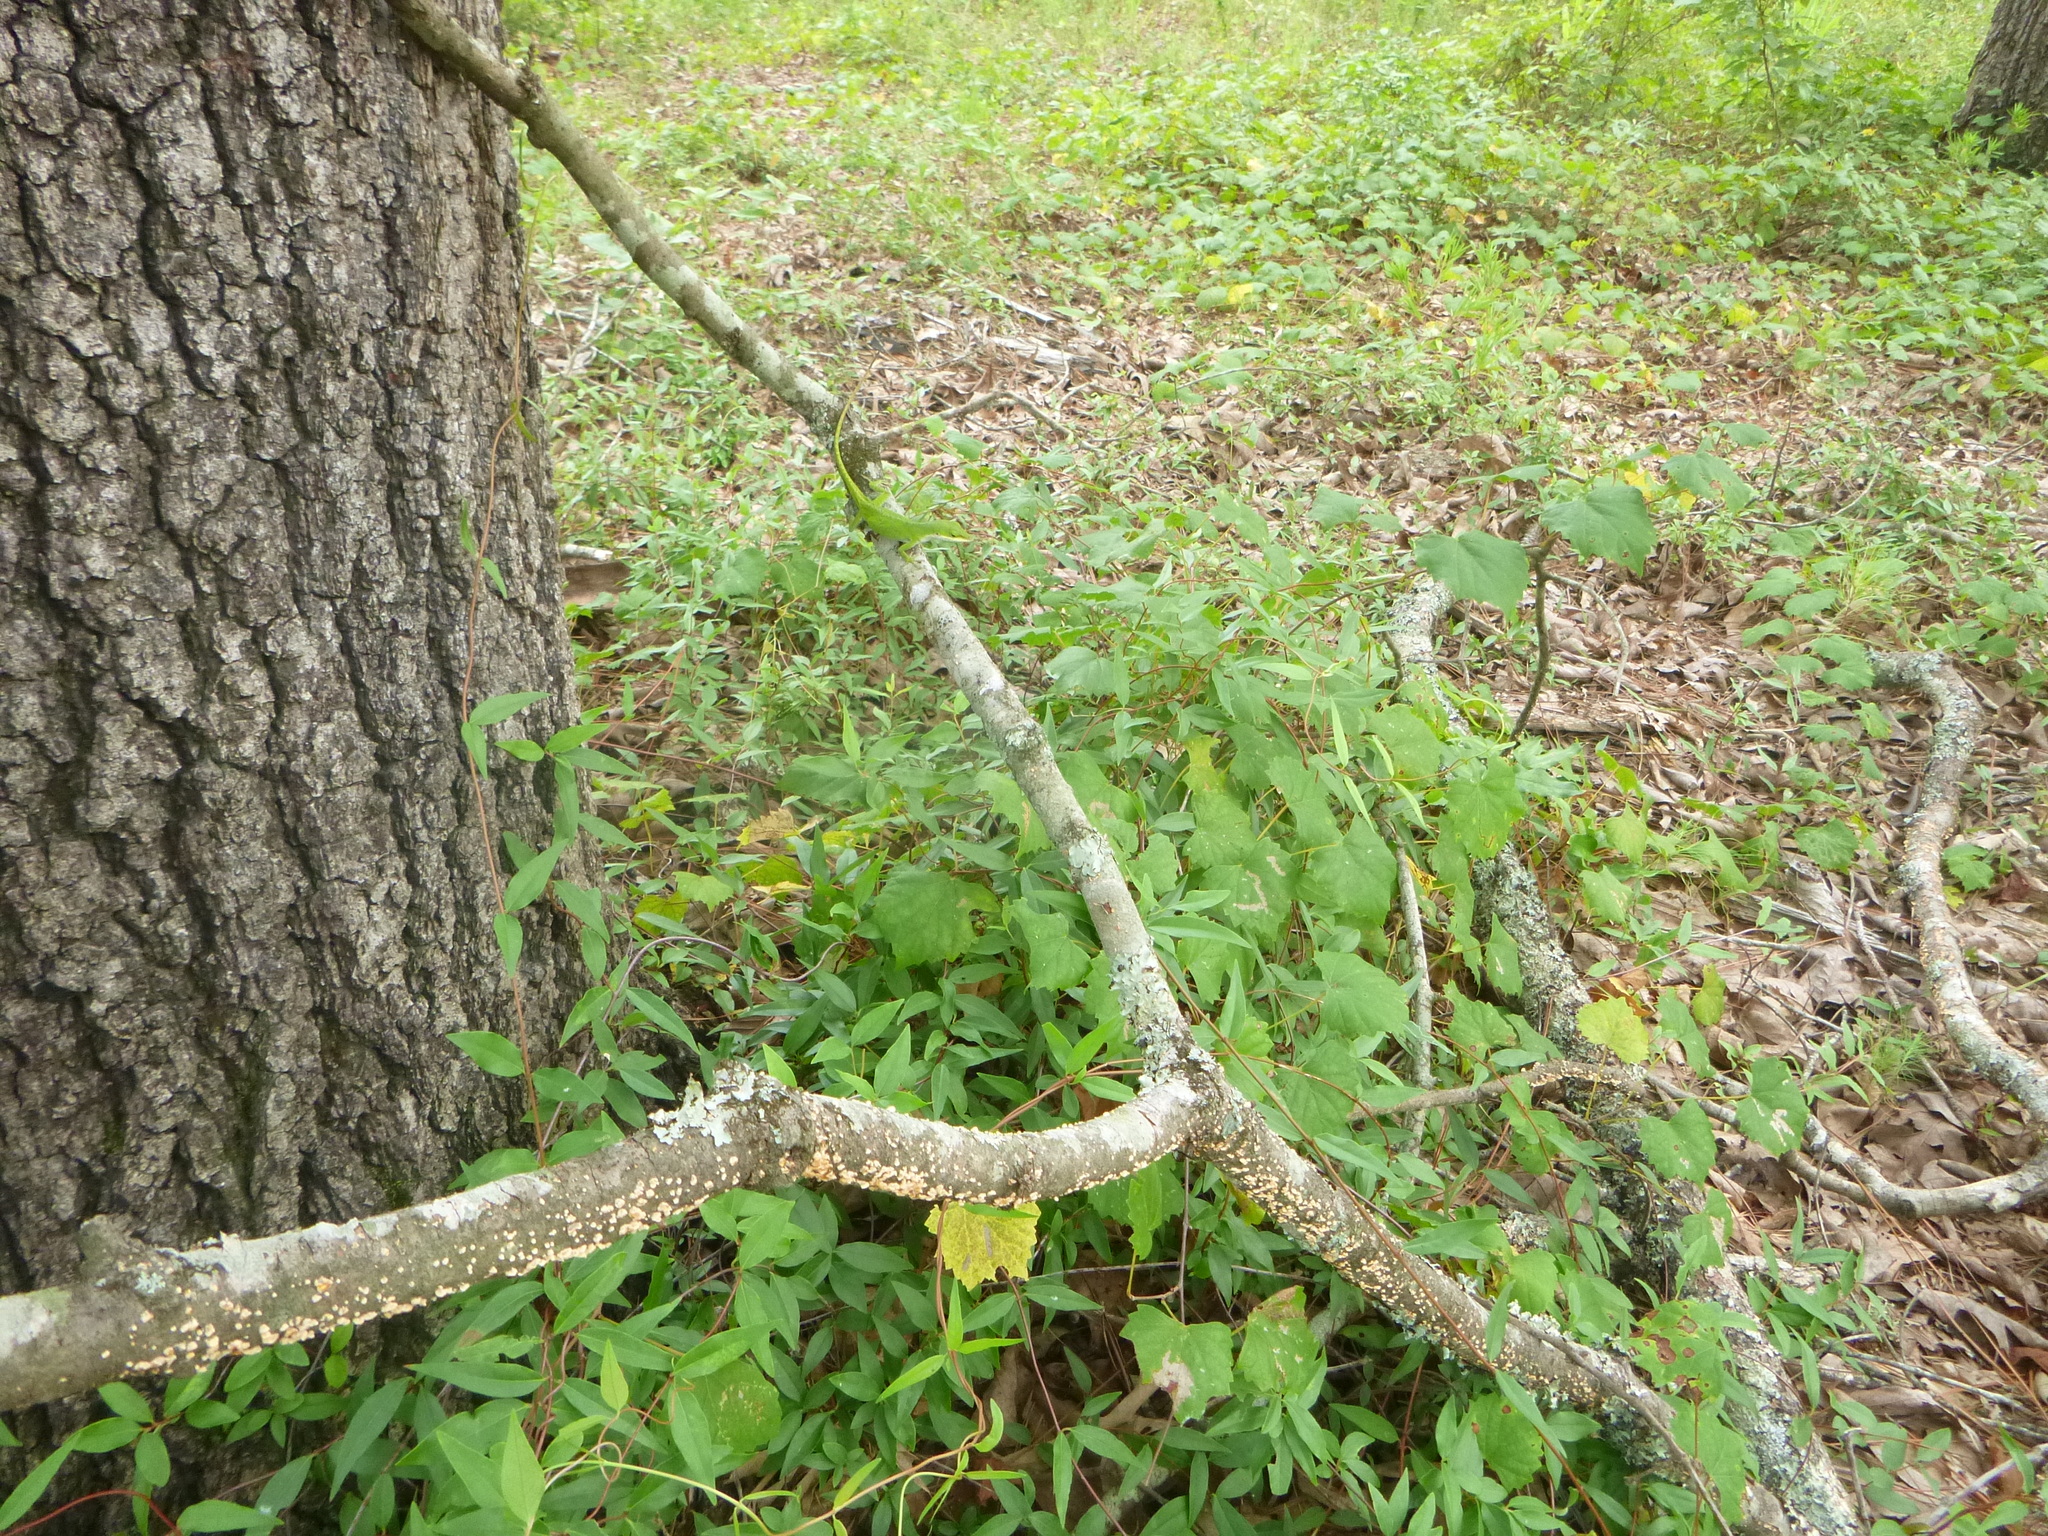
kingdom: Animalia
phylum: Chordata
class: Squamata
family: Dactyloidae
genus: Anolis
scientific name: Anolis carolinensis
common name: Green anole
